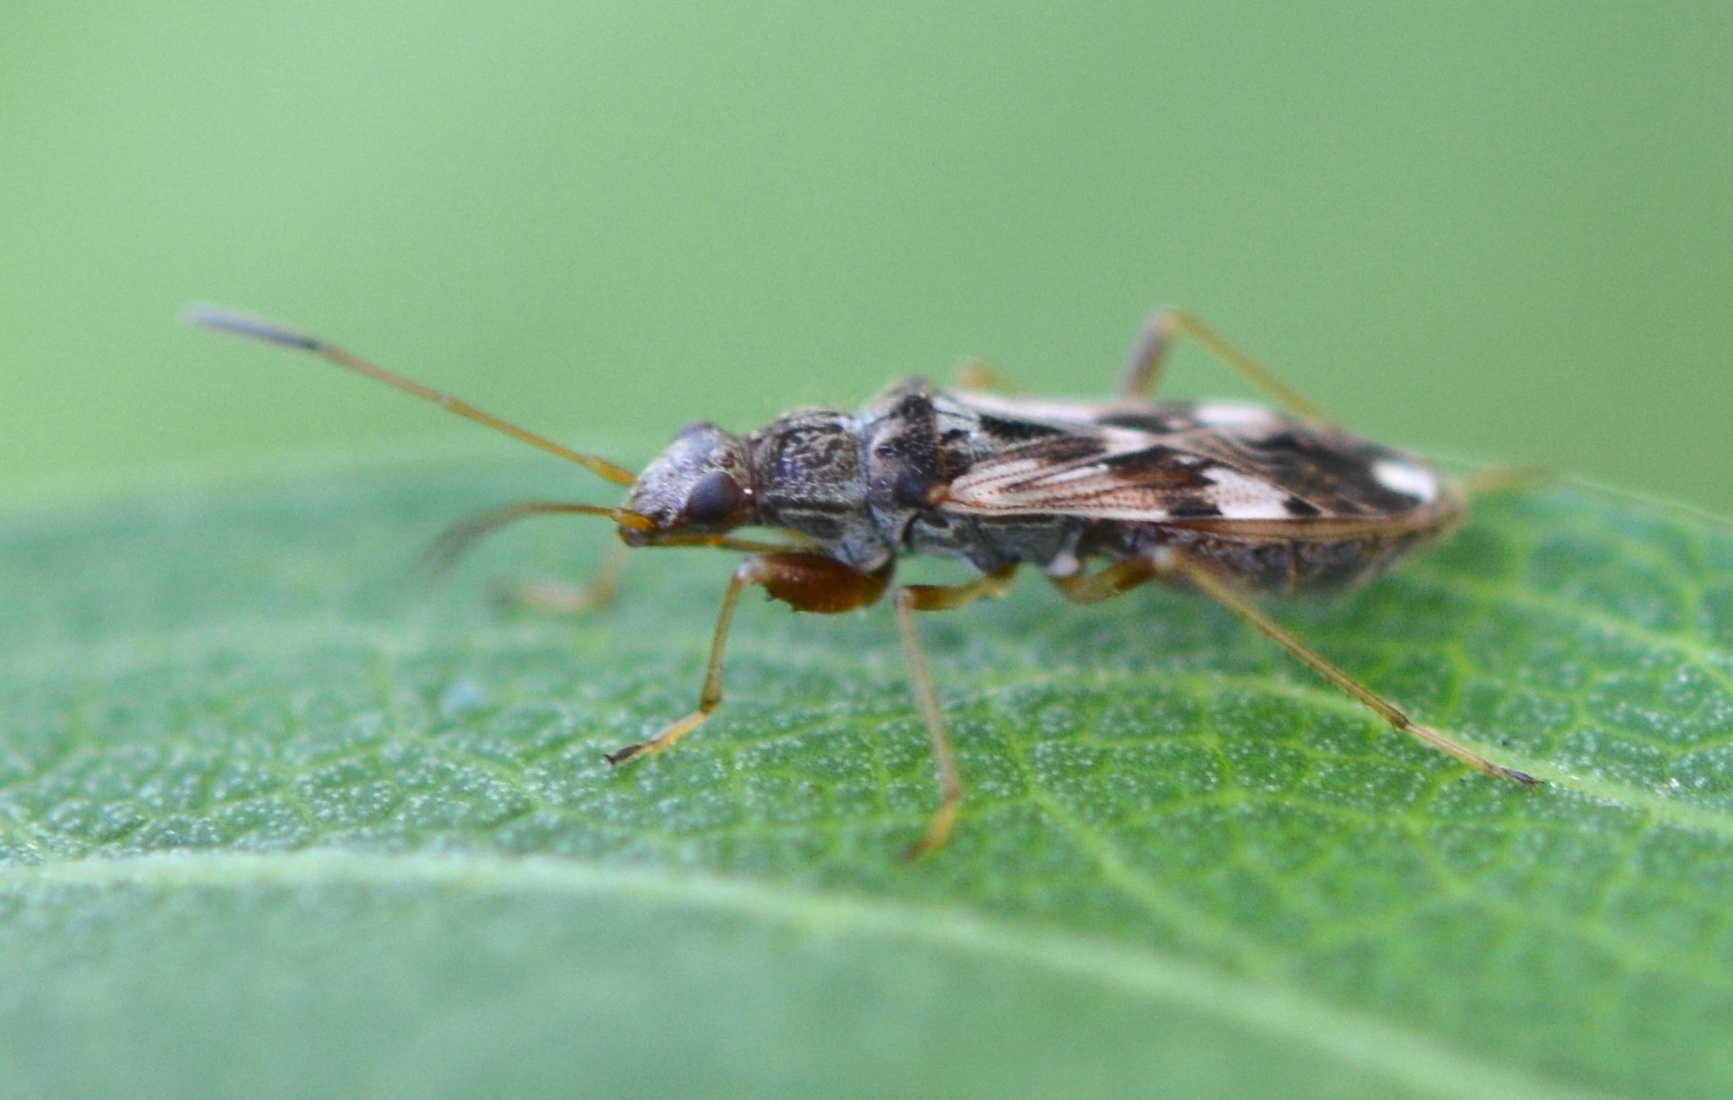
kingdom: Animalia
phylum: Arthropoda
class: Insecta
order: Hemiptera
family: Rhyparochromidae
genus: Neopamera
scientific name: Neopamera bilobata
